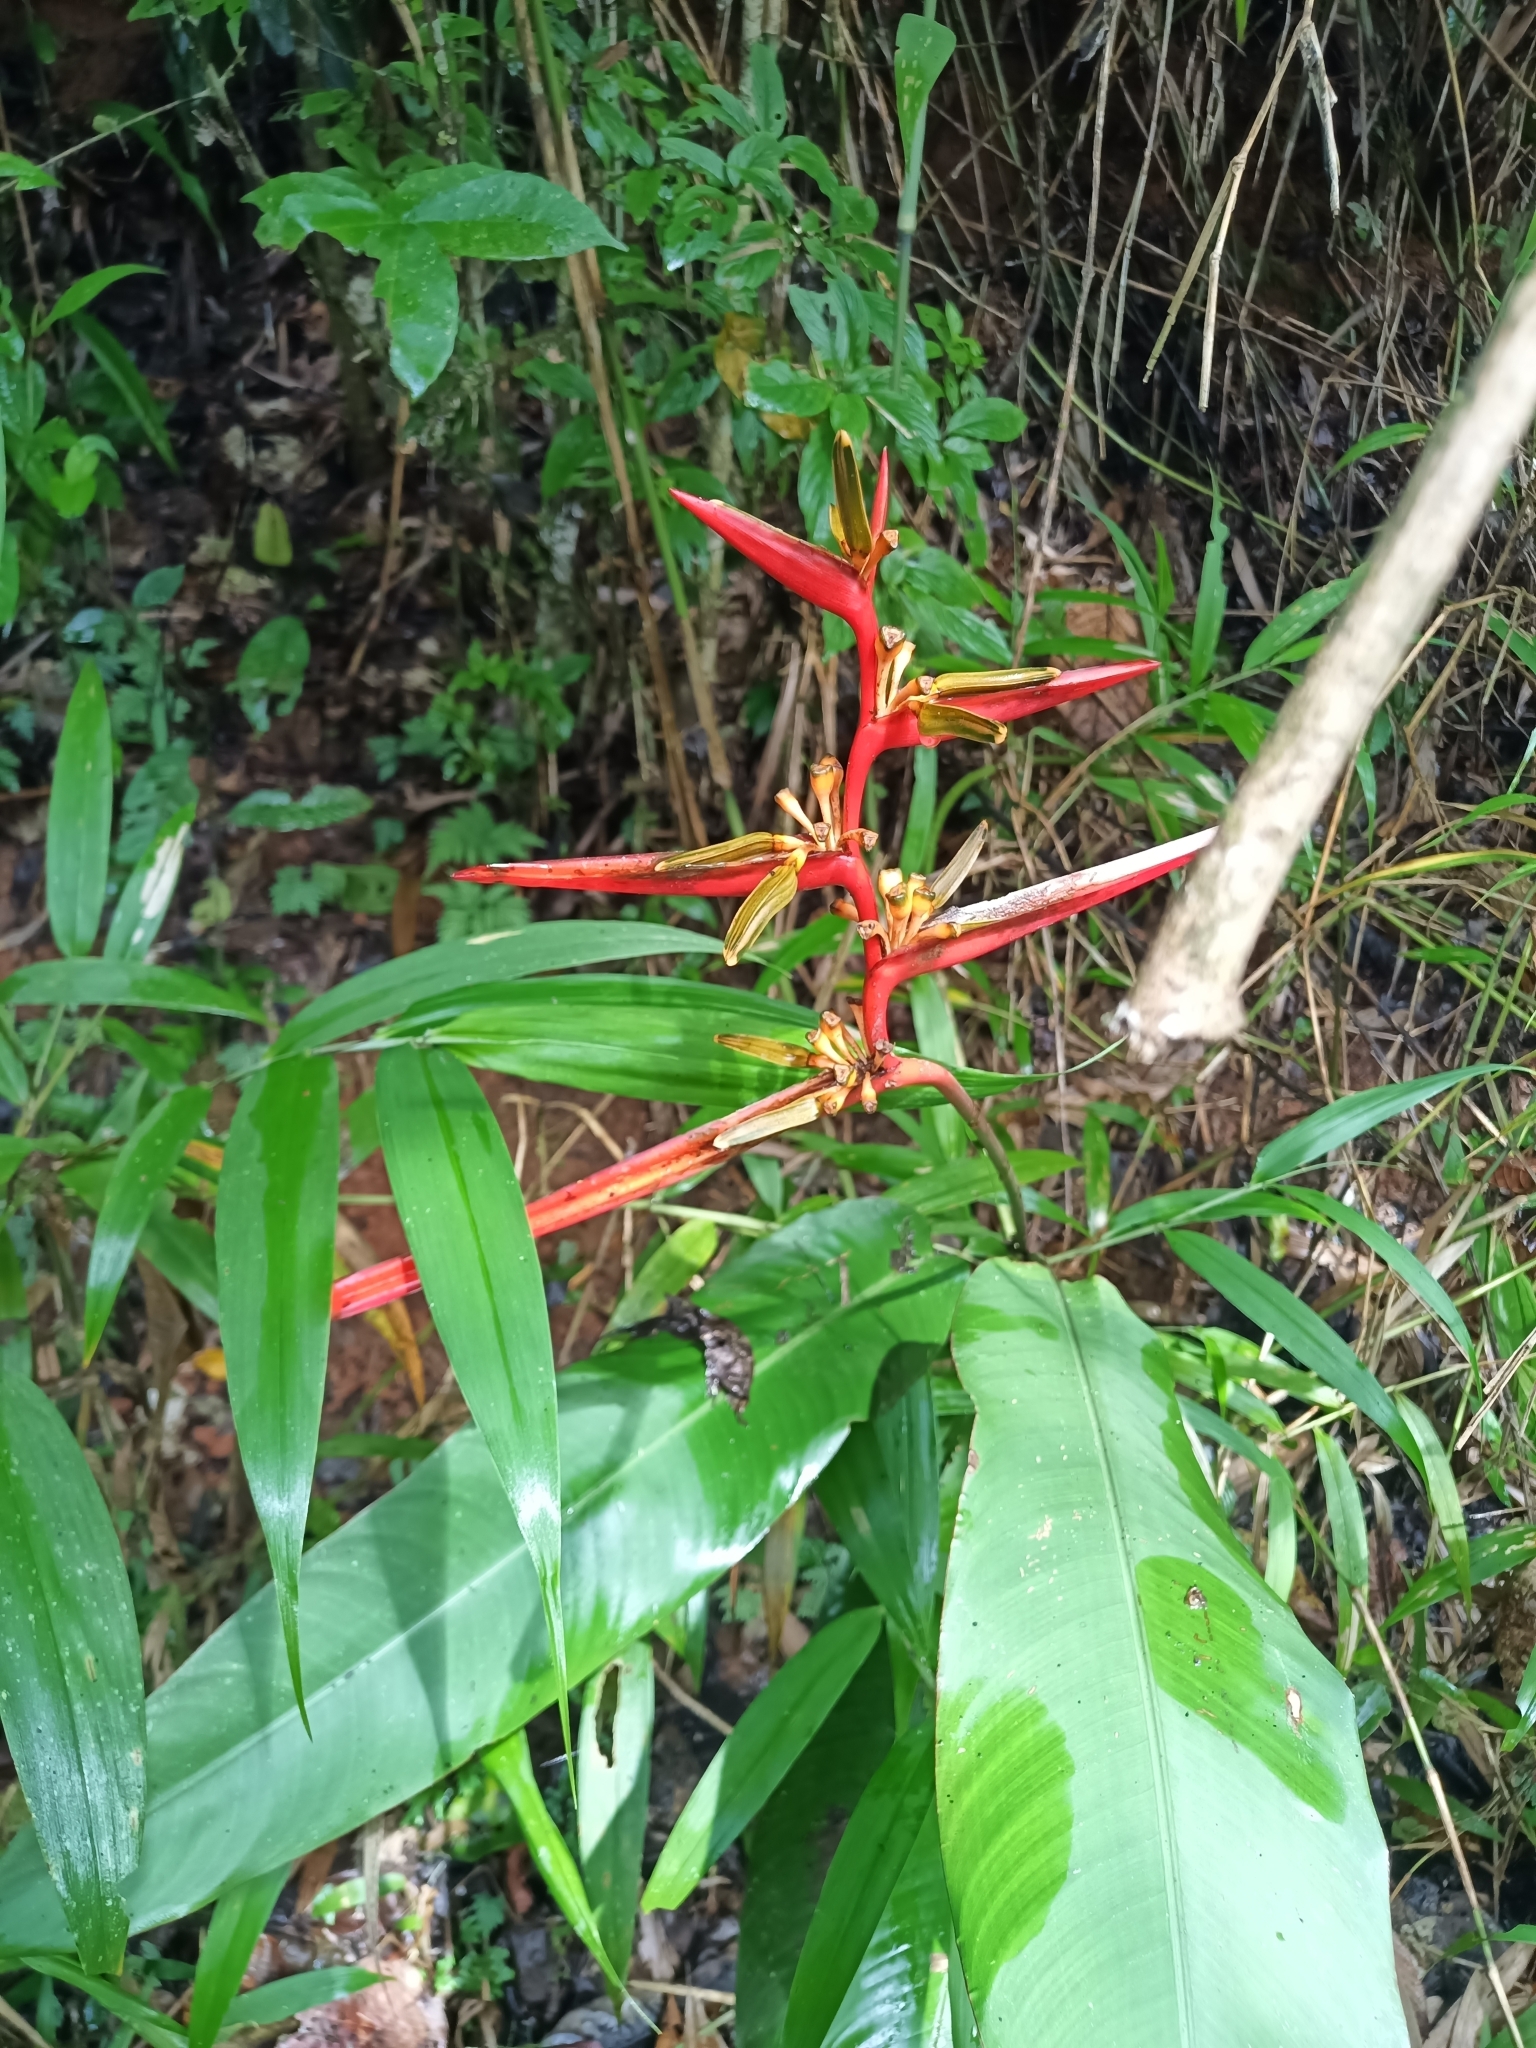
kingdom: Plantae
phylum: Tracheophyta
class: Liliopsida
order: Zingiberales
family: Heliconiaceae
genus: Heliconia
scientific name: Heliconia acuminata
